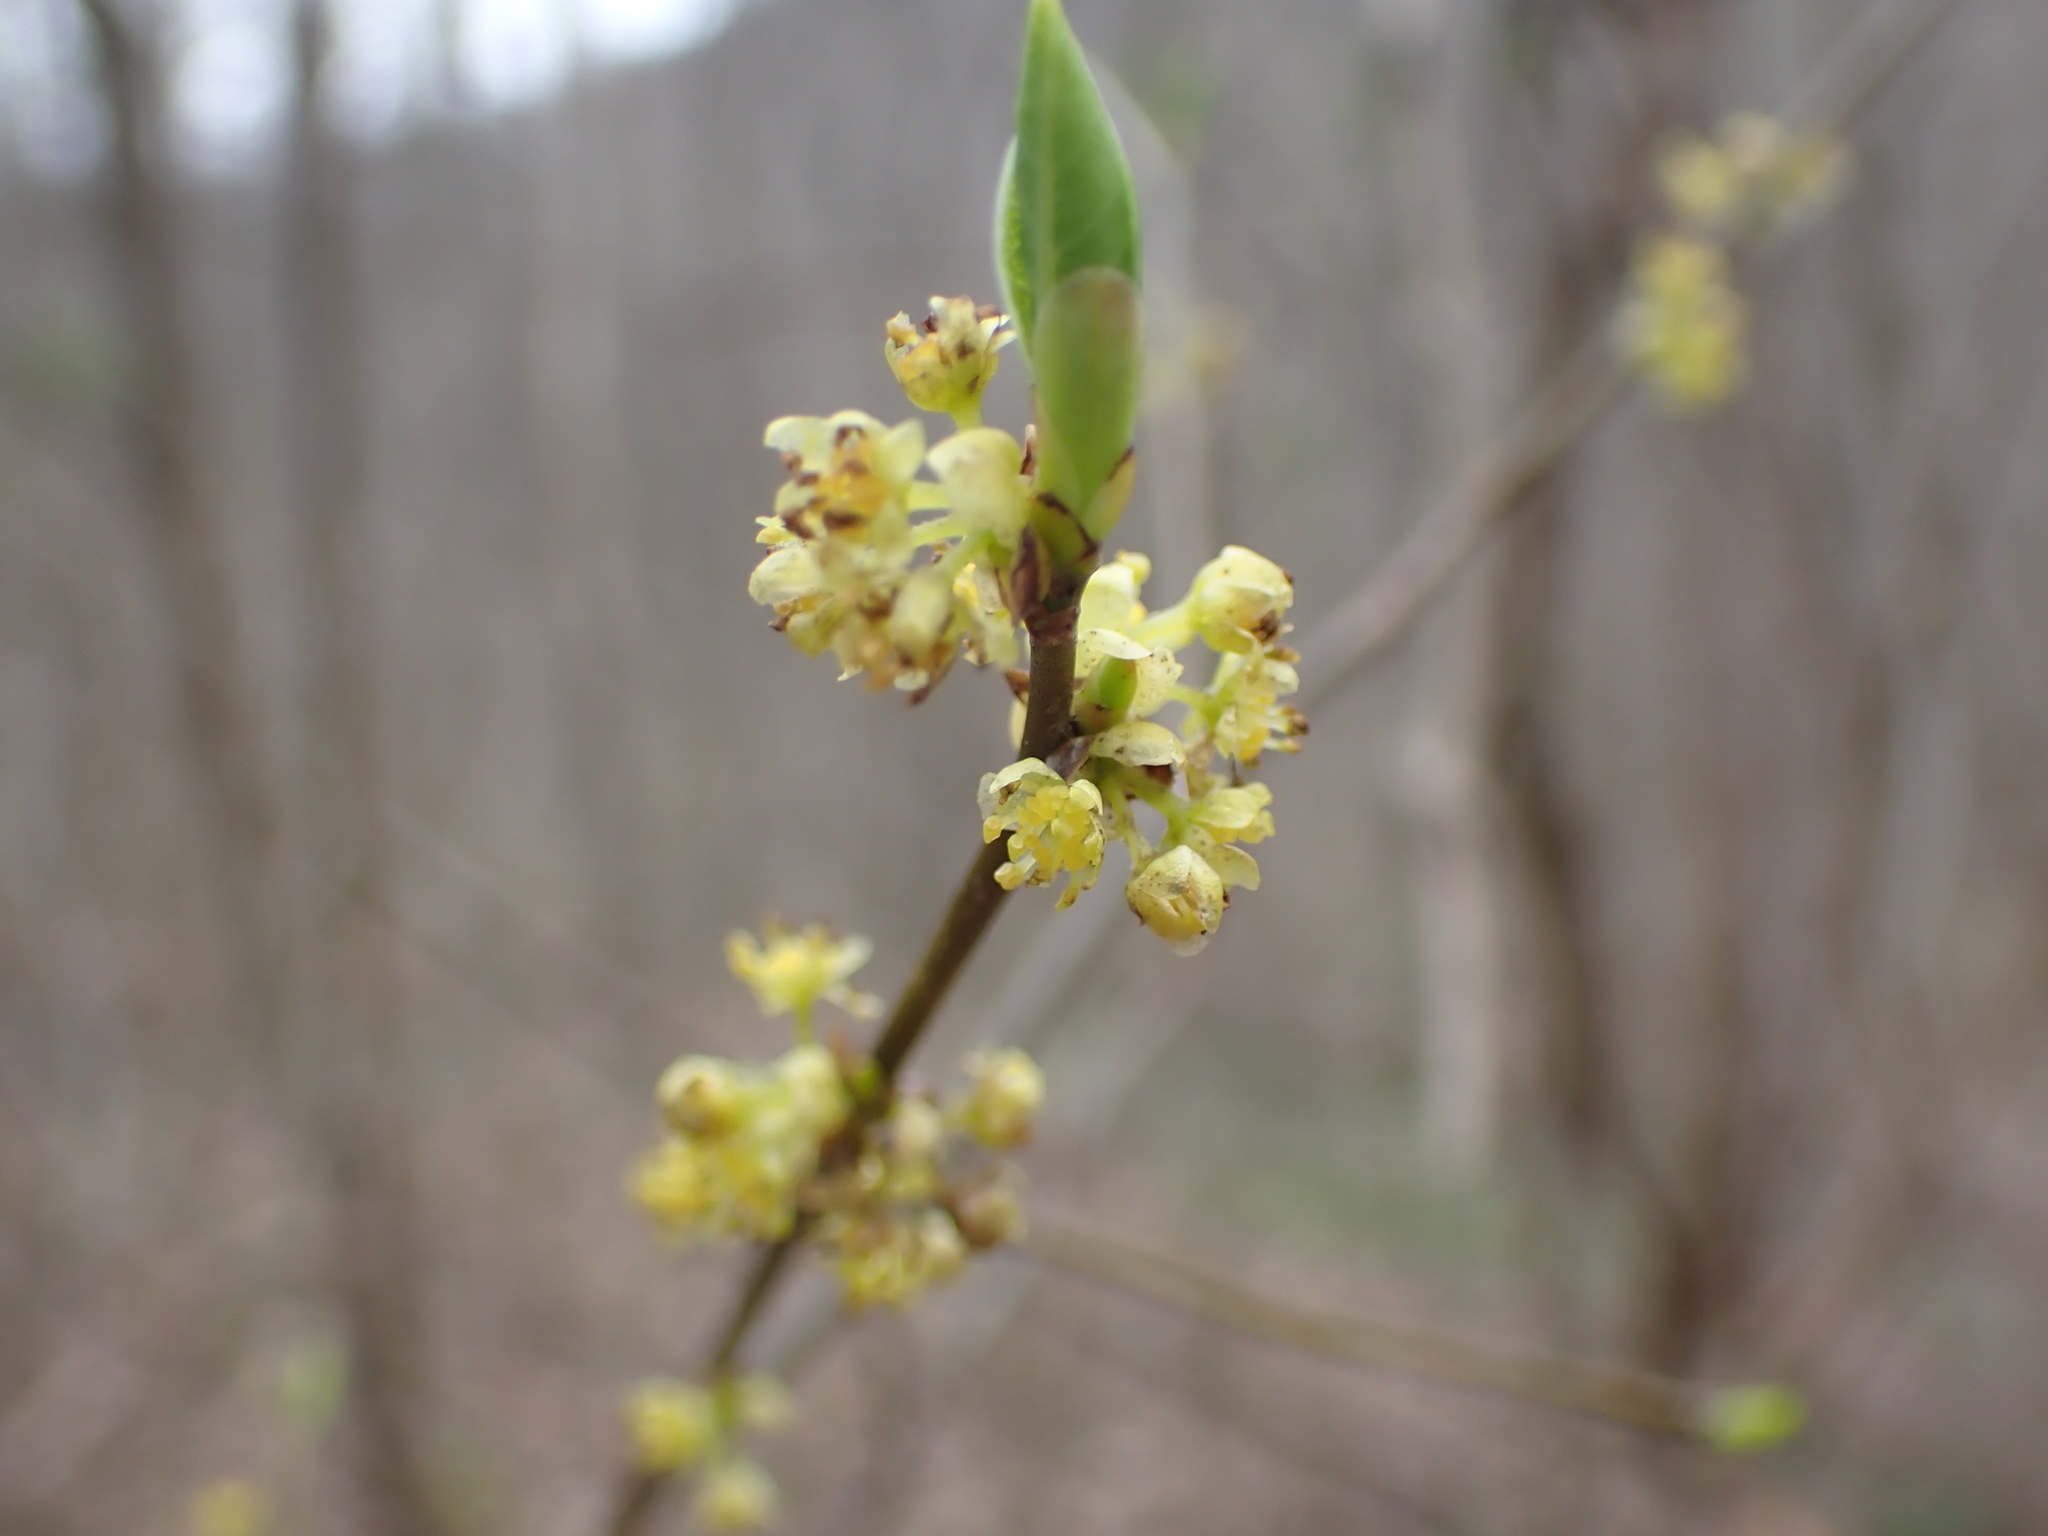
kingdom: Plantae
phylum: Tracheophyta
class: Magnoliopsida
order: Laurales
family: Lauraceae
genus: Lindera
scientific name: Lindera benzoin
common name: Spicebush
